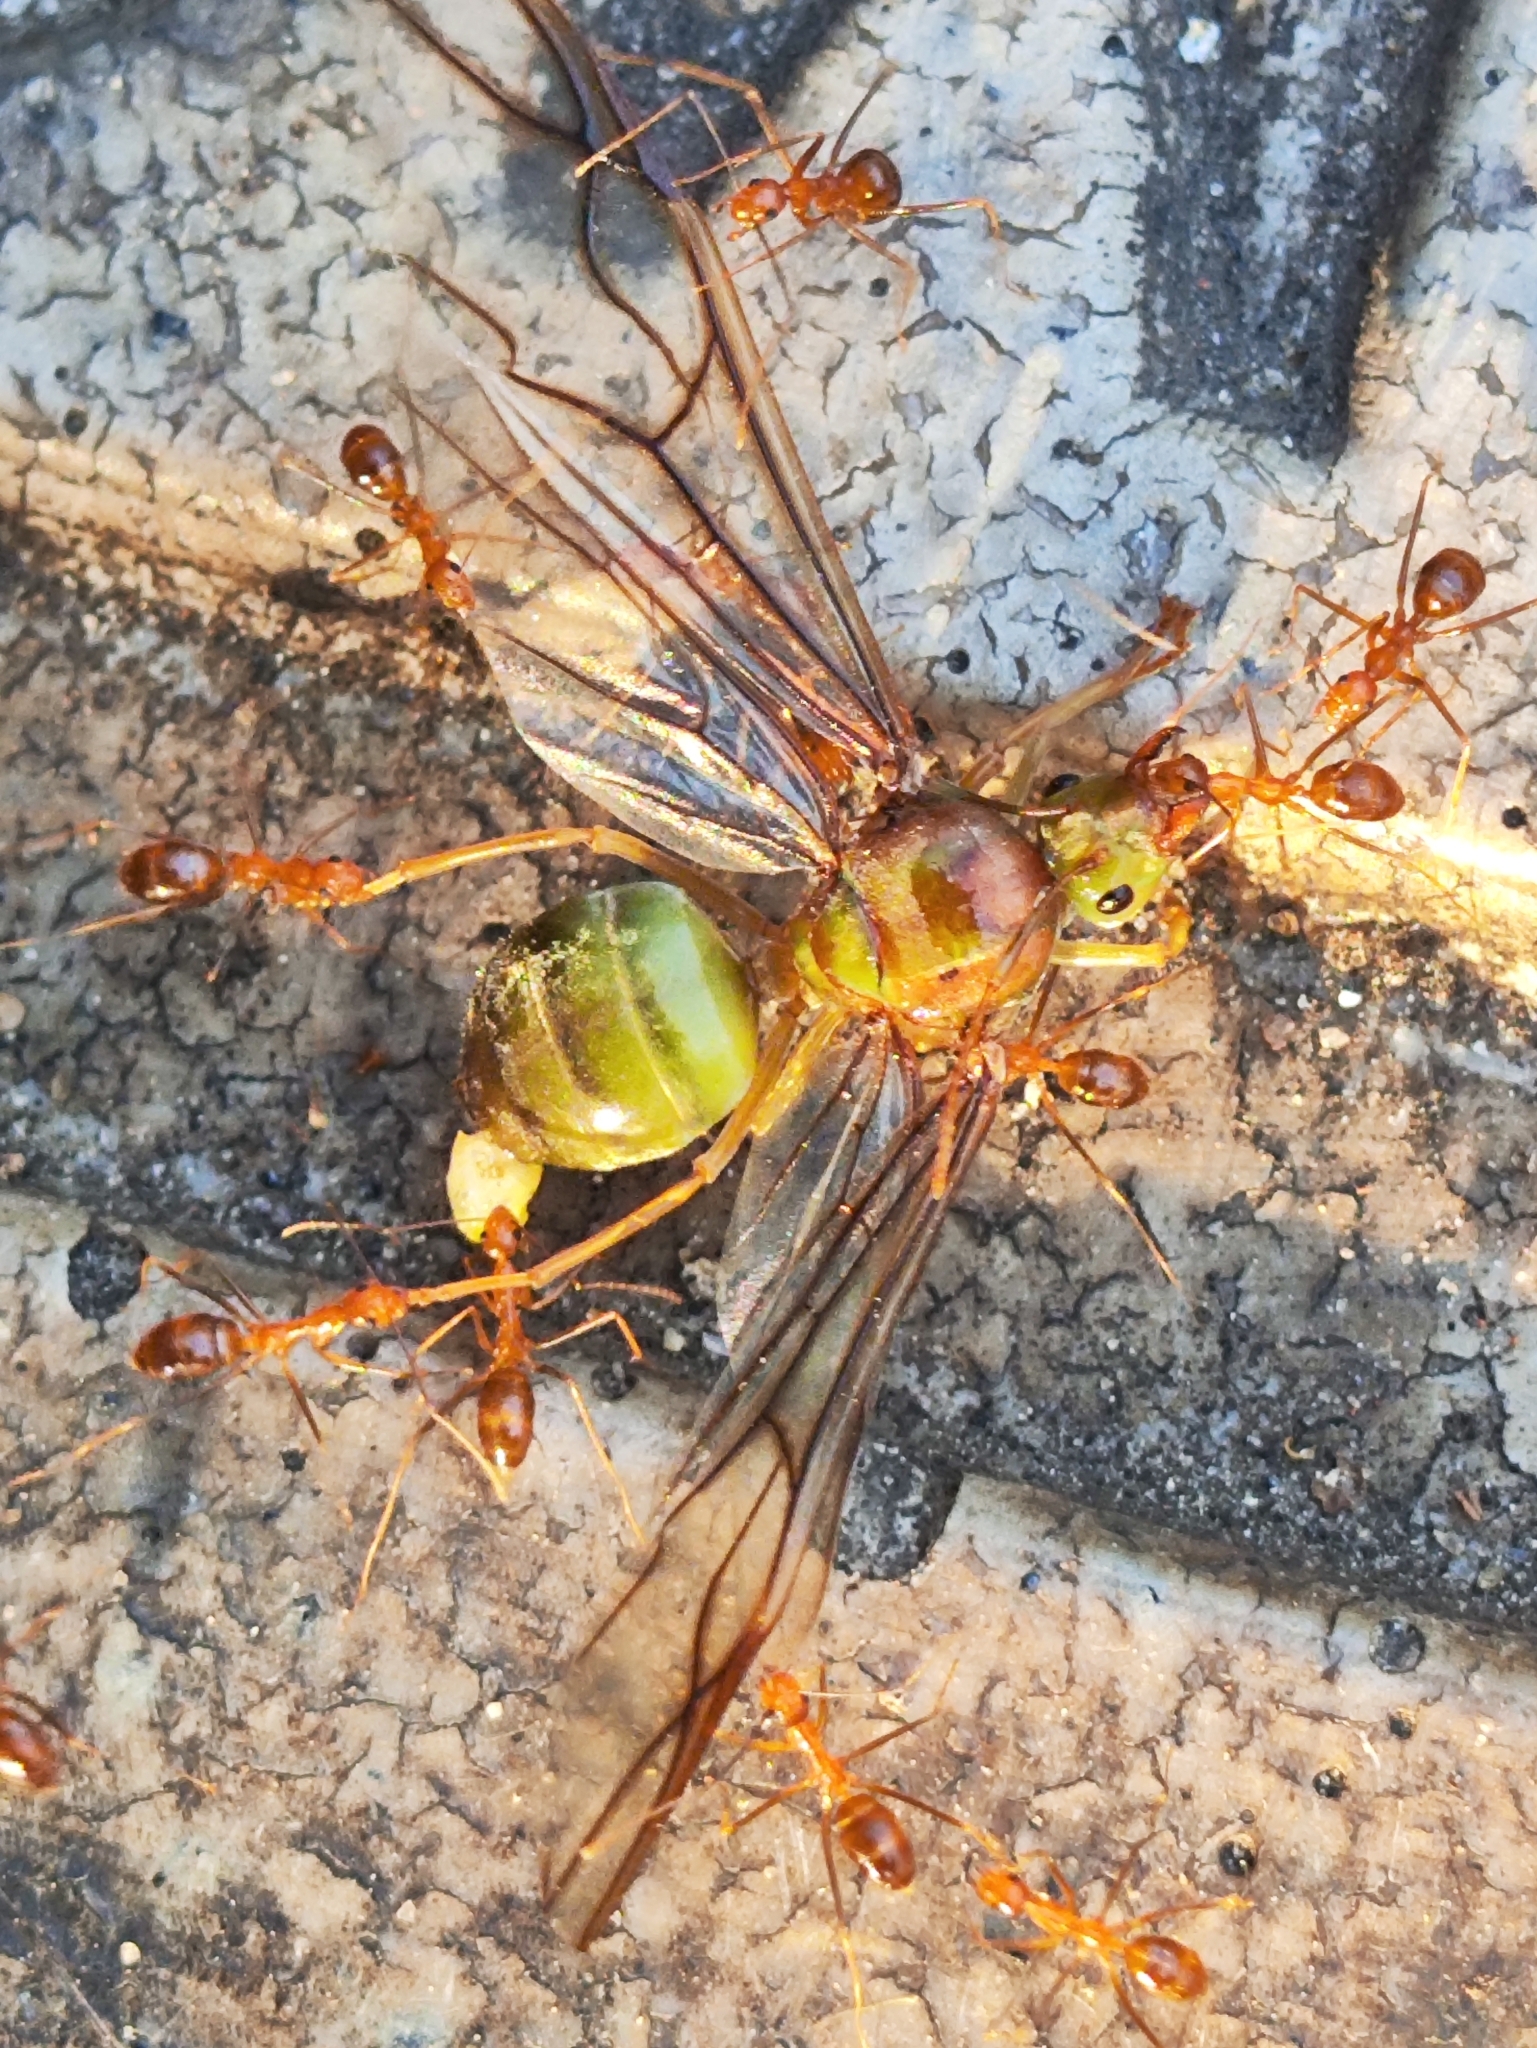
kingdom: Animalia
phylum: Arthropoda
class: Insecta
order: Hymenoptera
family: Formicidae
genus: Oecophylla
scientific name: Oecophylla smaragdina
